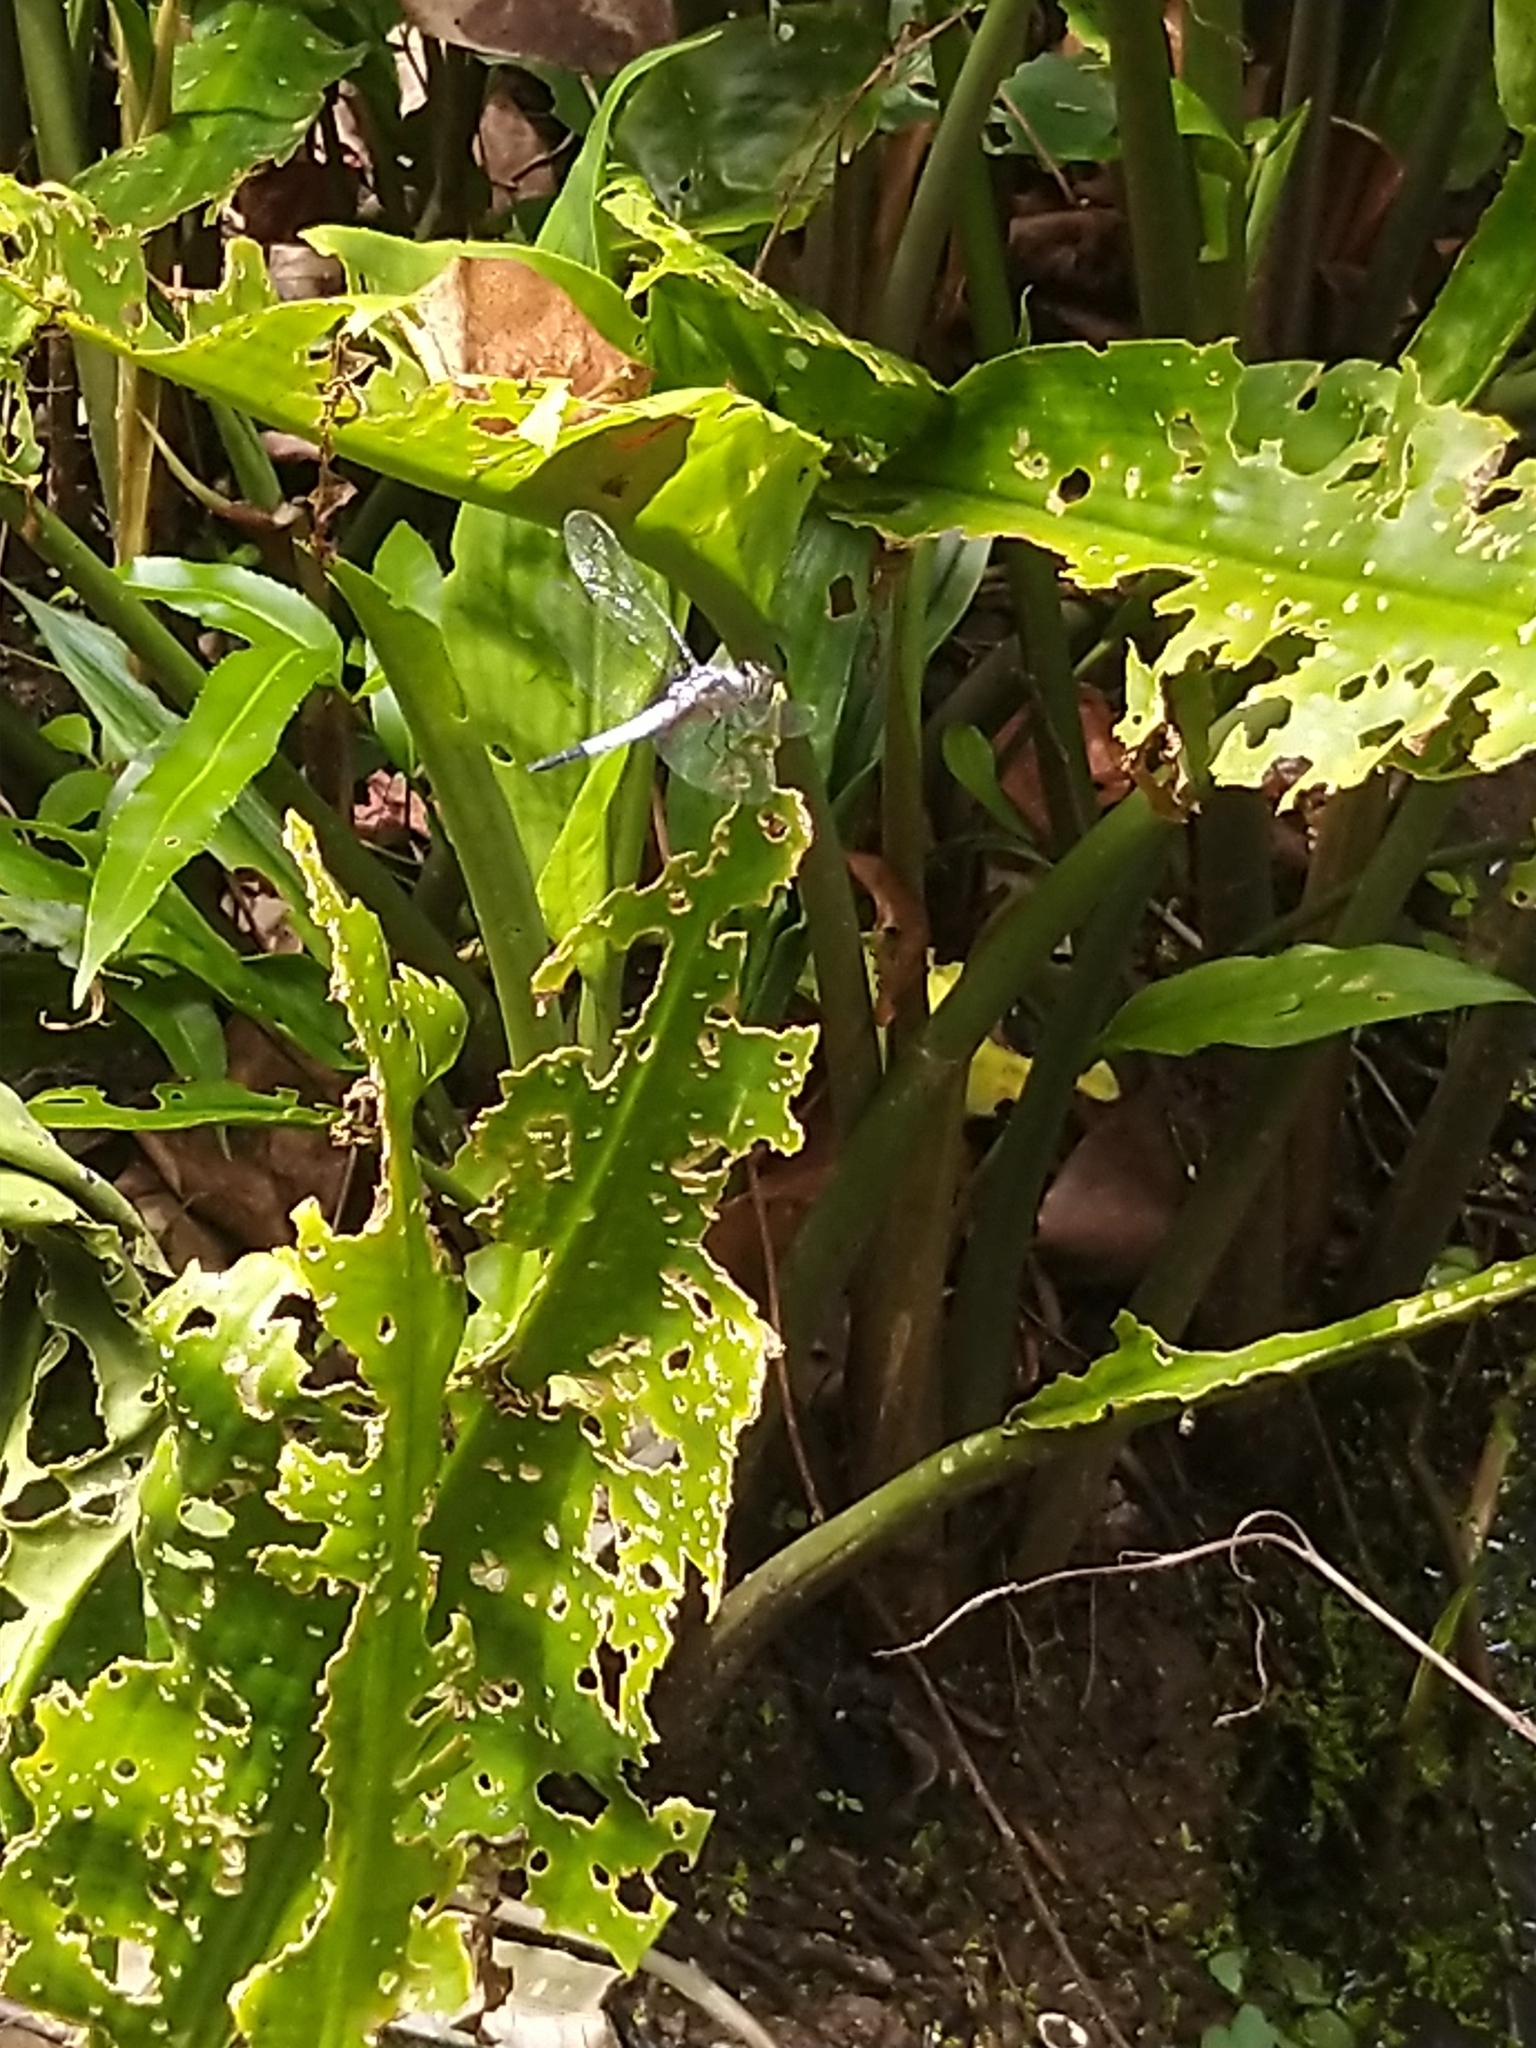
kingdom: Animalia
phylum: Arthropoda
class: Insecta
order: Odonata
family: Libellulidae
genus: Brachydiplax
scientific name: Brachydiplax chalybea
